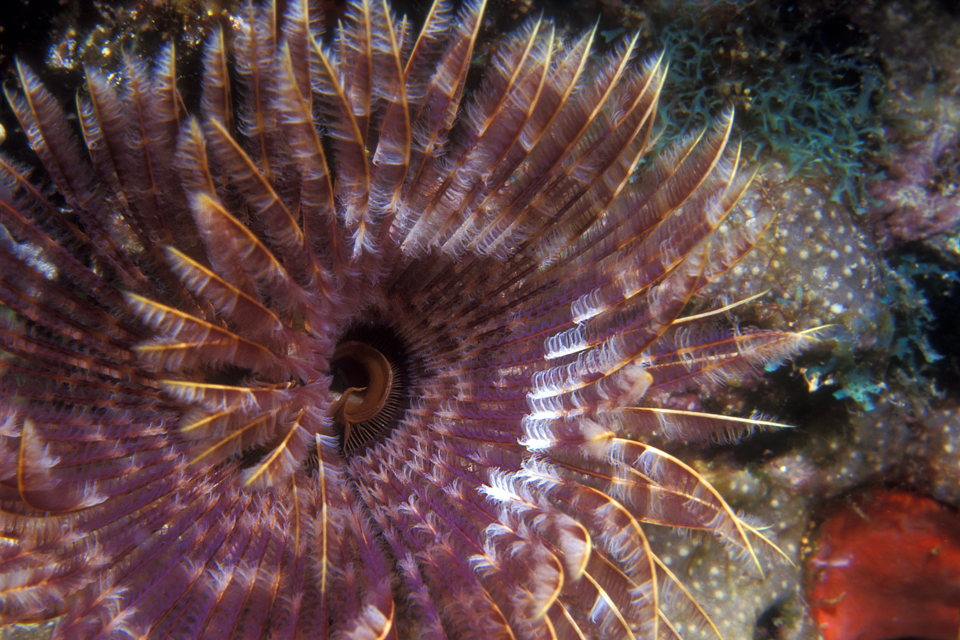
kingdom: Animalia
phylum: Annelida
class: Polychaeta
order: Sabellida
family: Sabellidae
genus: Sabellastarte
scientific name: Sabellastarte magnifica
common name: Giant feather-duster worm
